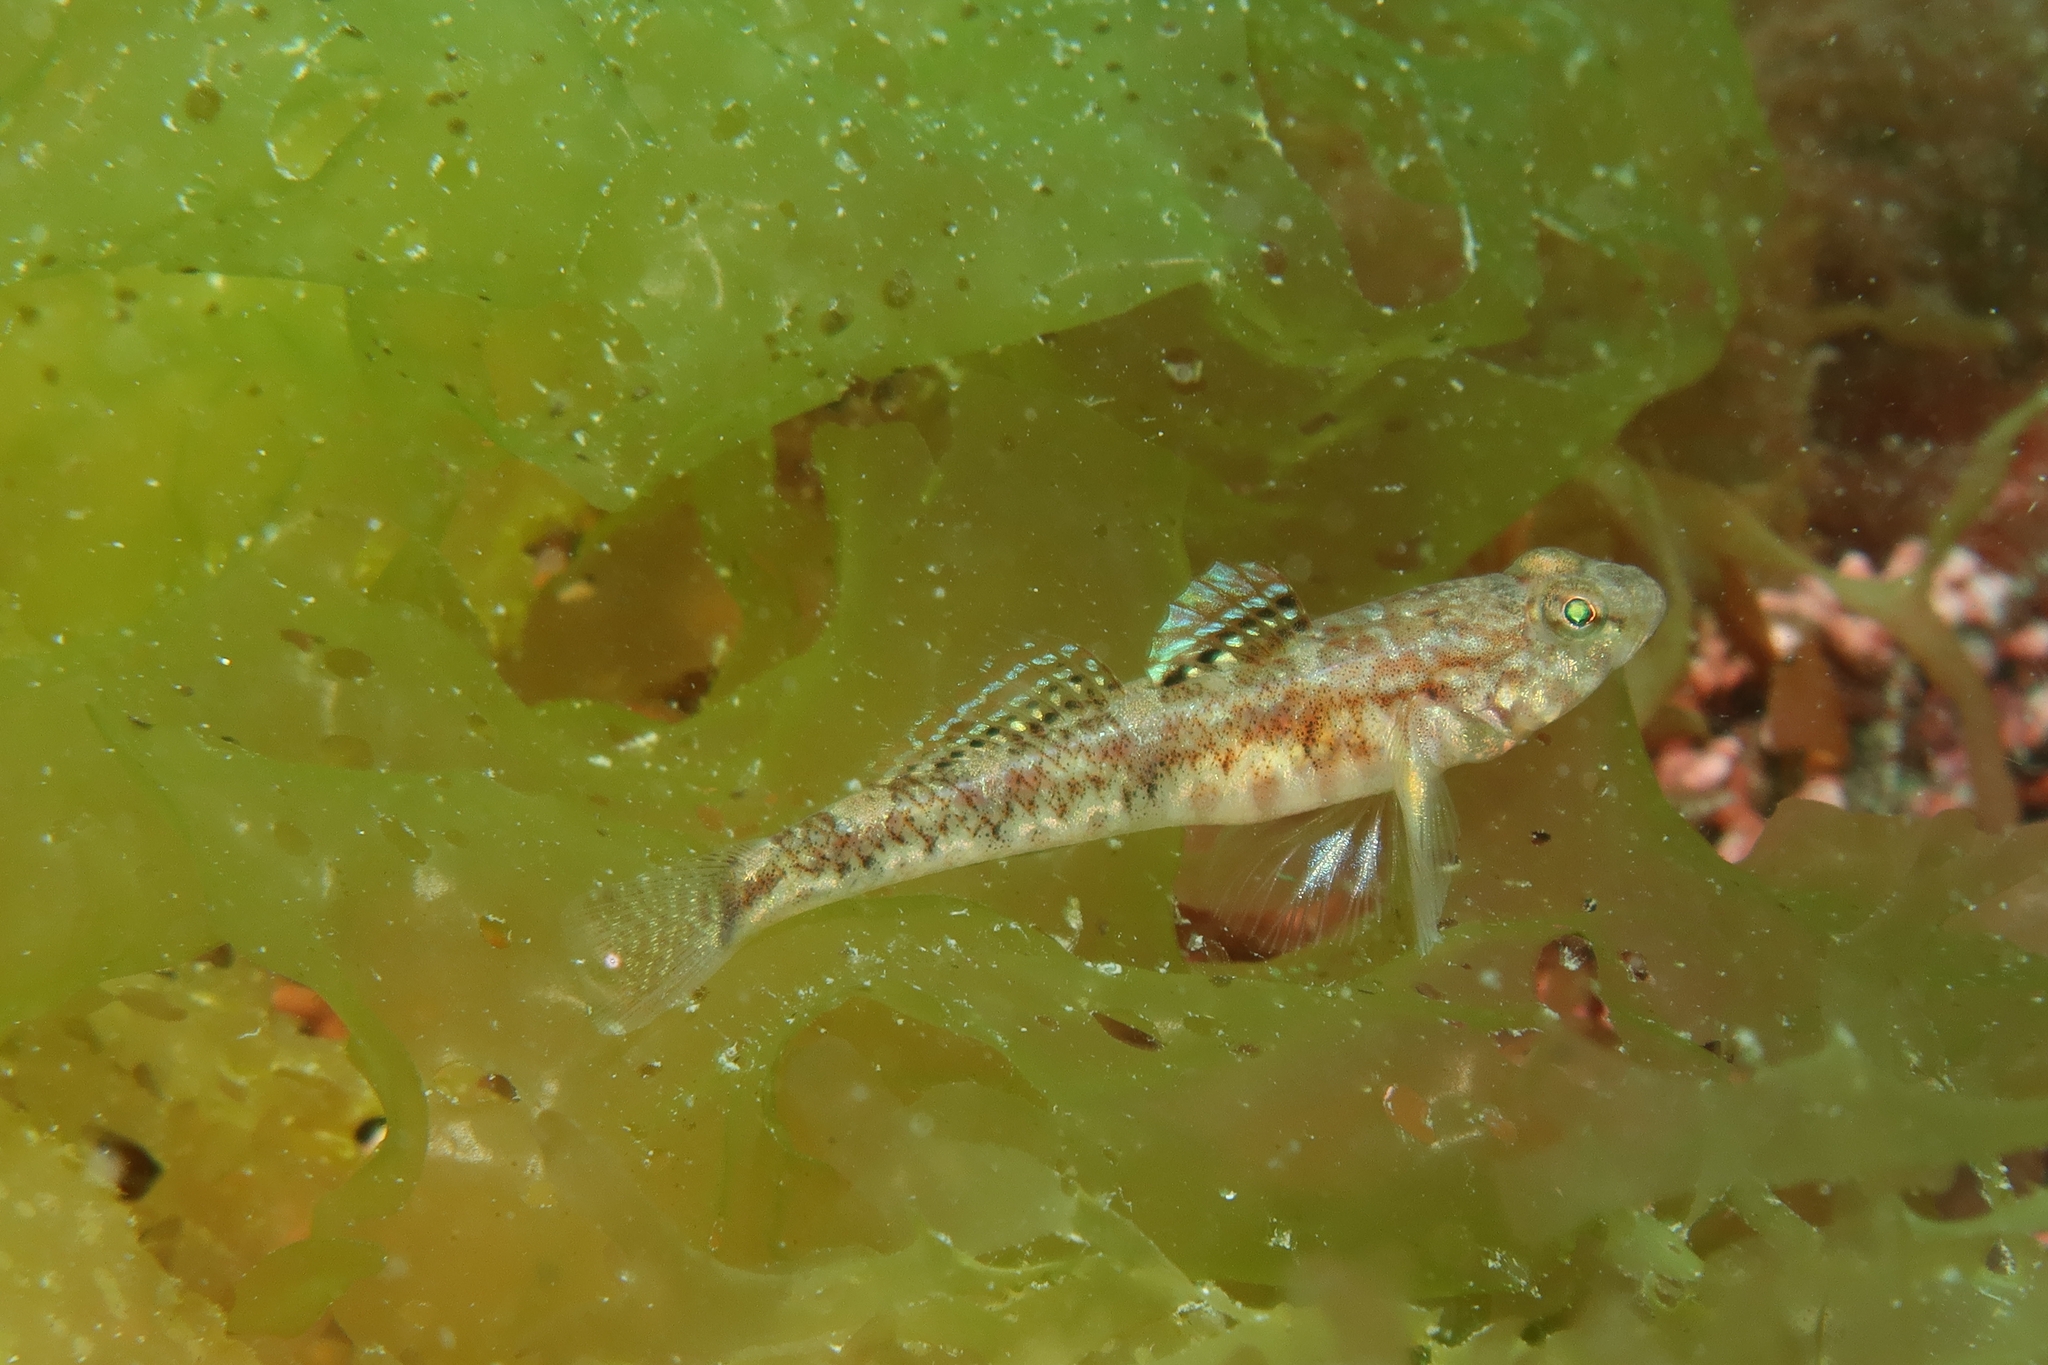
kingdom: Animalia
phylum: Chordata
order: Perciformes
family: Gobiidae
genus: Pomatoschistus
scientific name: Pomatoschistus pictus
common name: Painted goby
